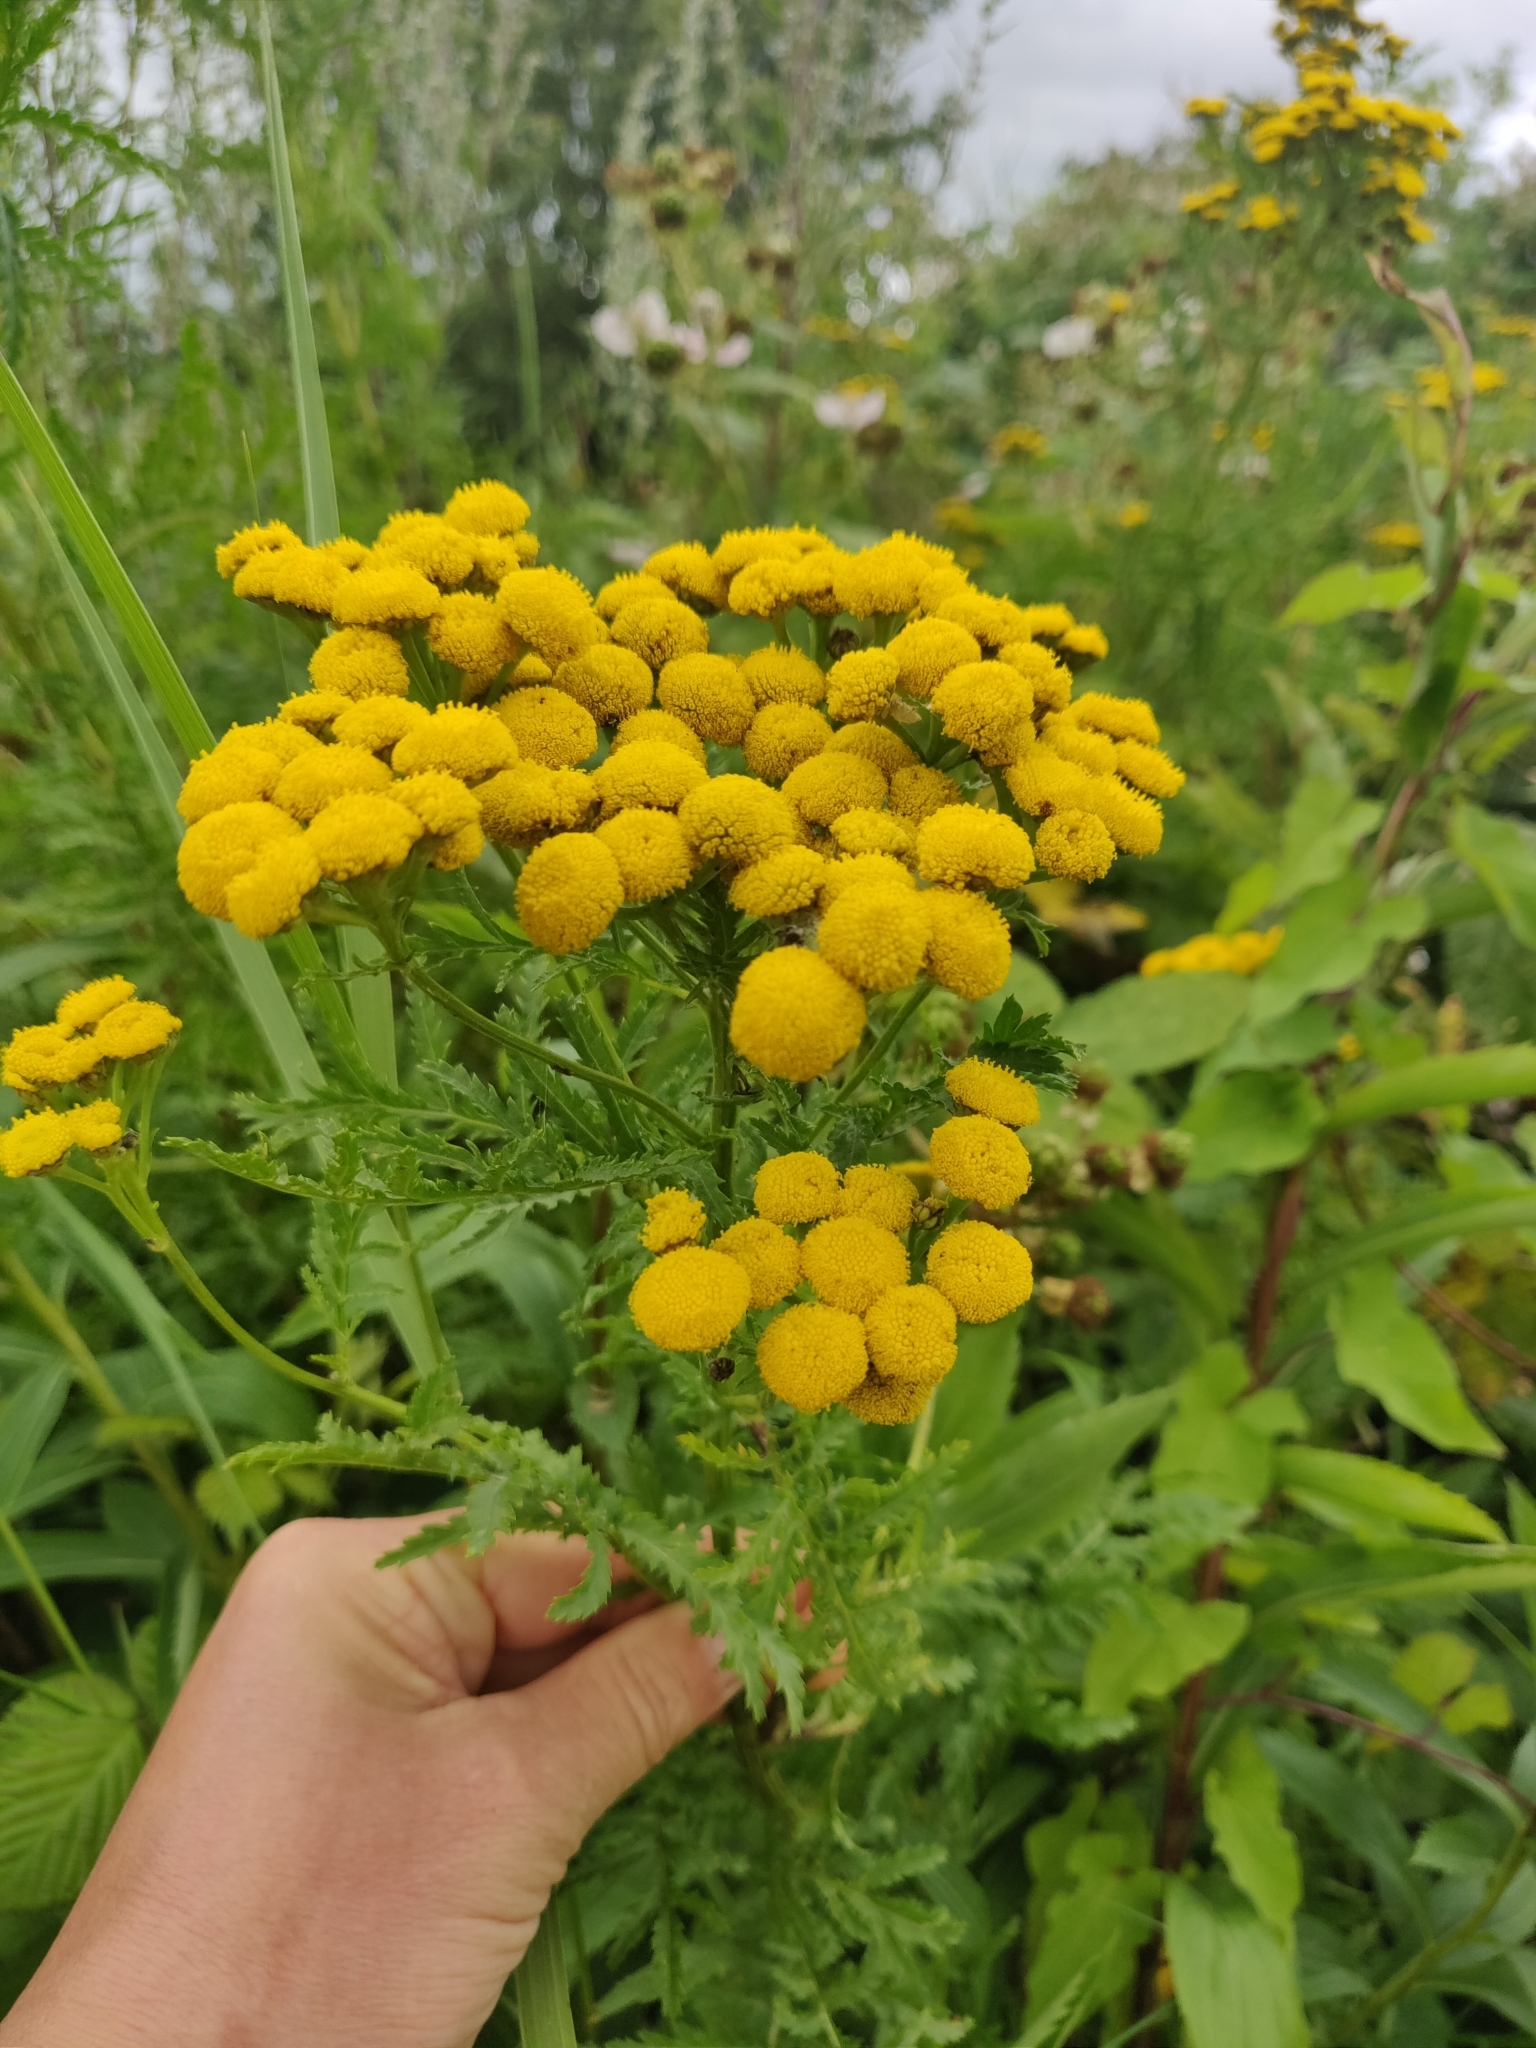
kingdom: Plantae
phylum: Tracheophyta
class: Magnoliopsida
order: Asterales
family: Asteraceae
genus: Tanacetum
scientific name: Tanacetum vulgare
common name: Common tansy
